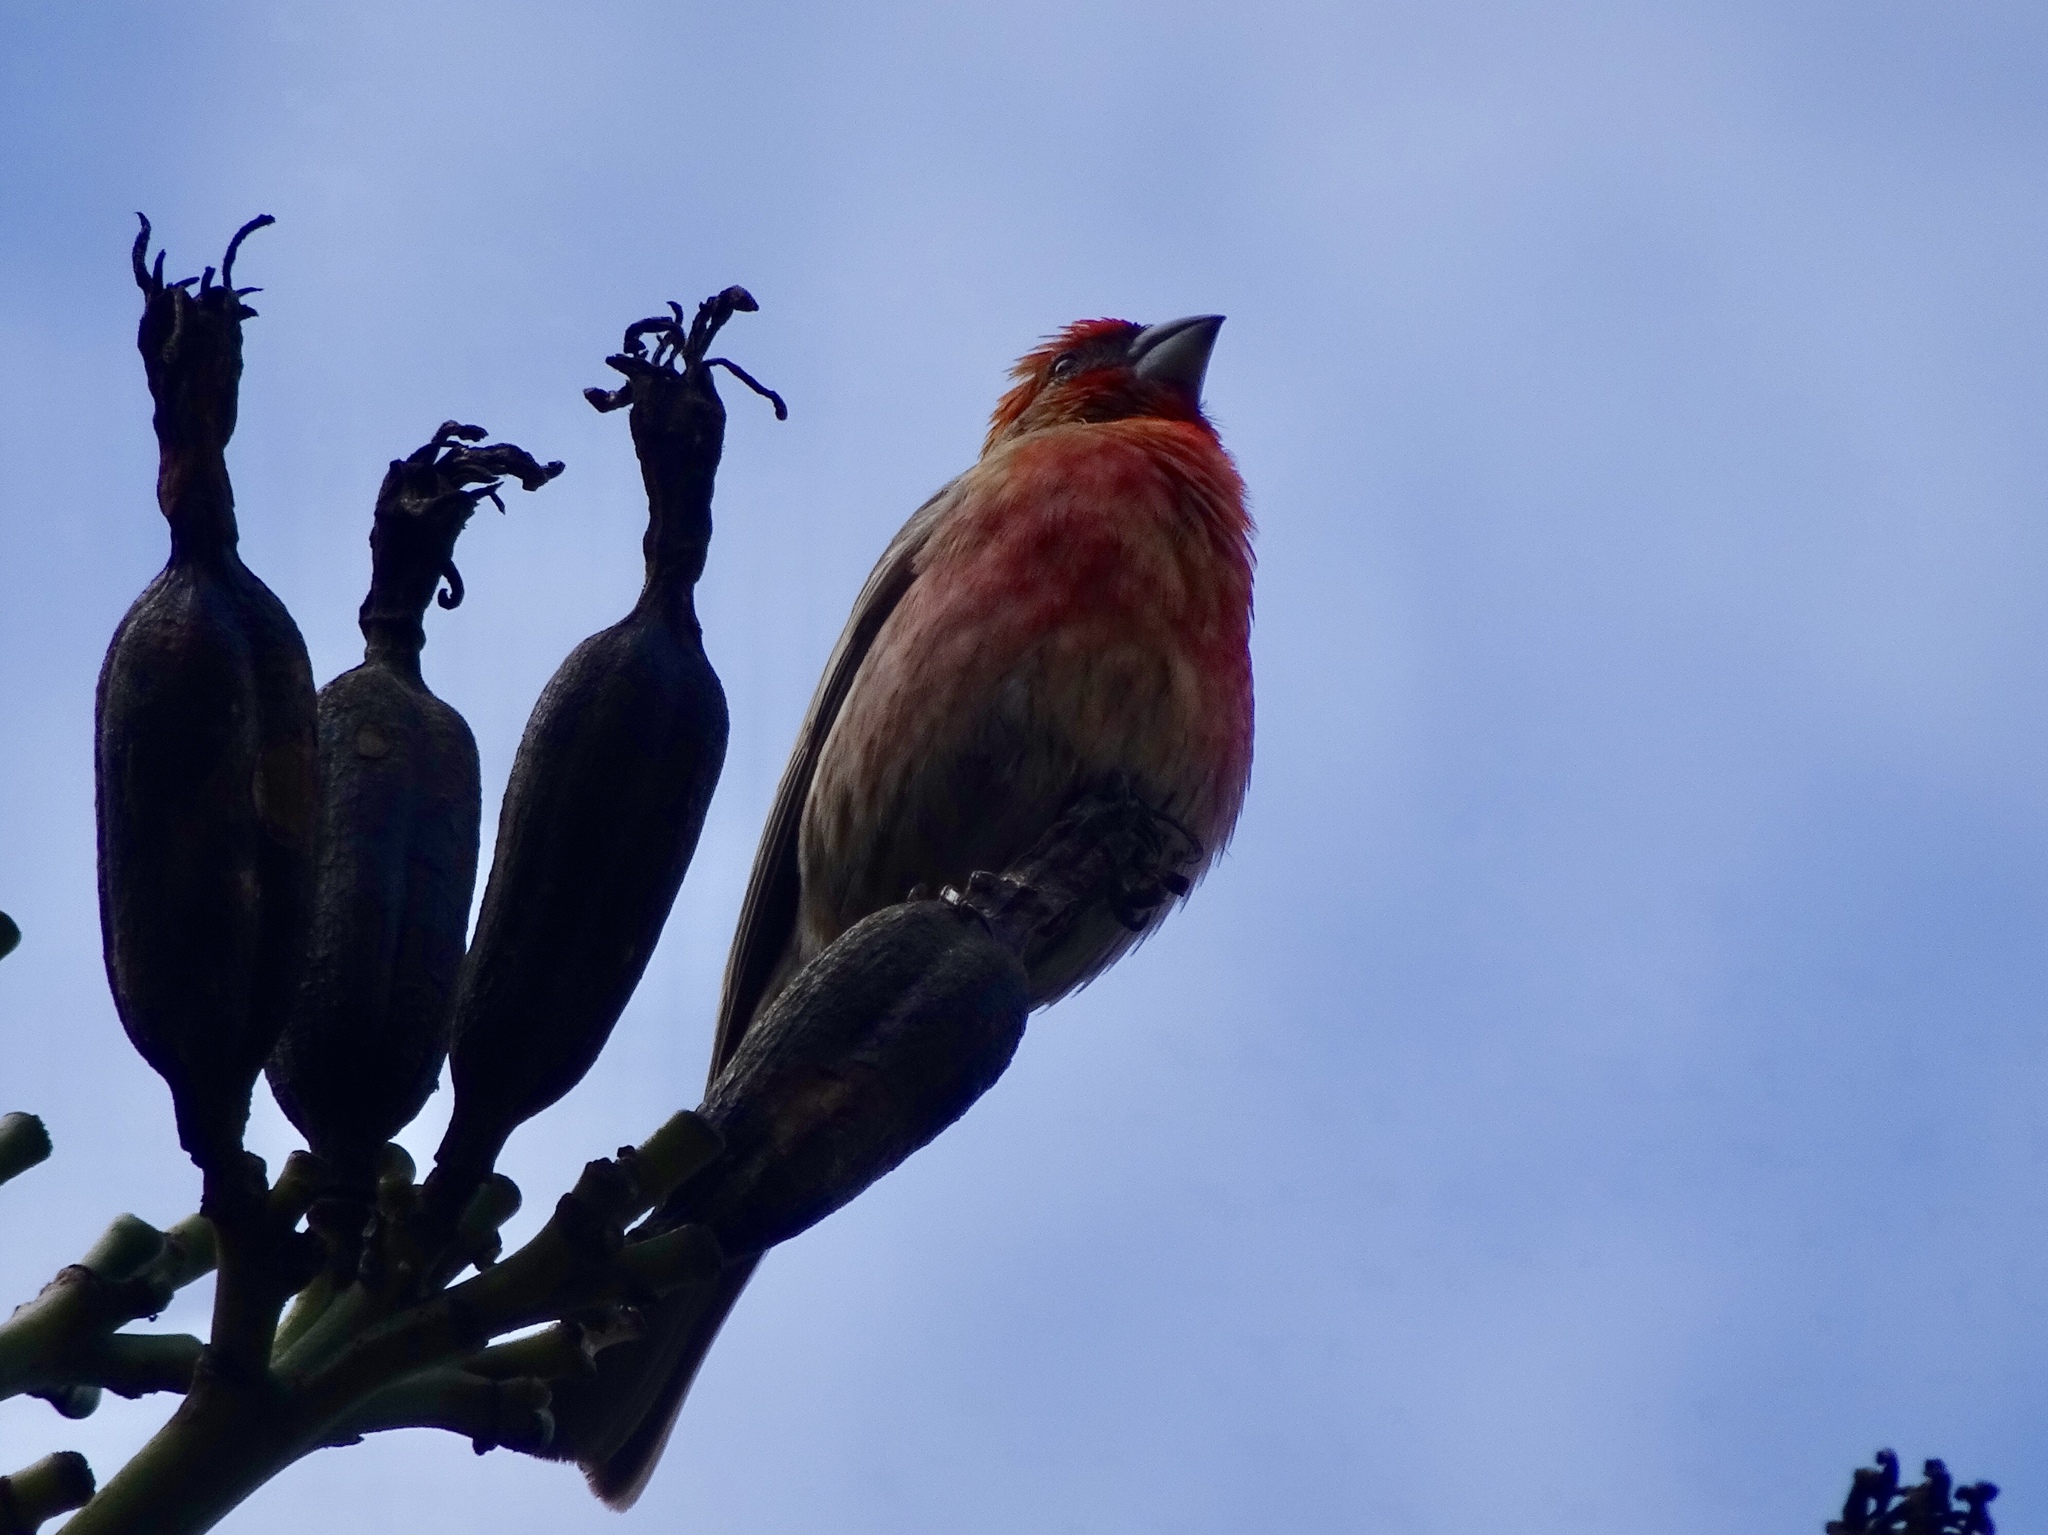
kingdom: Animalia
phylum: Chordata
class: Aves
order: Passeriformes
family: Fringillidae
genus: Haemorhous
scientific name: Haemorhous mexicanus
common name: House finch
